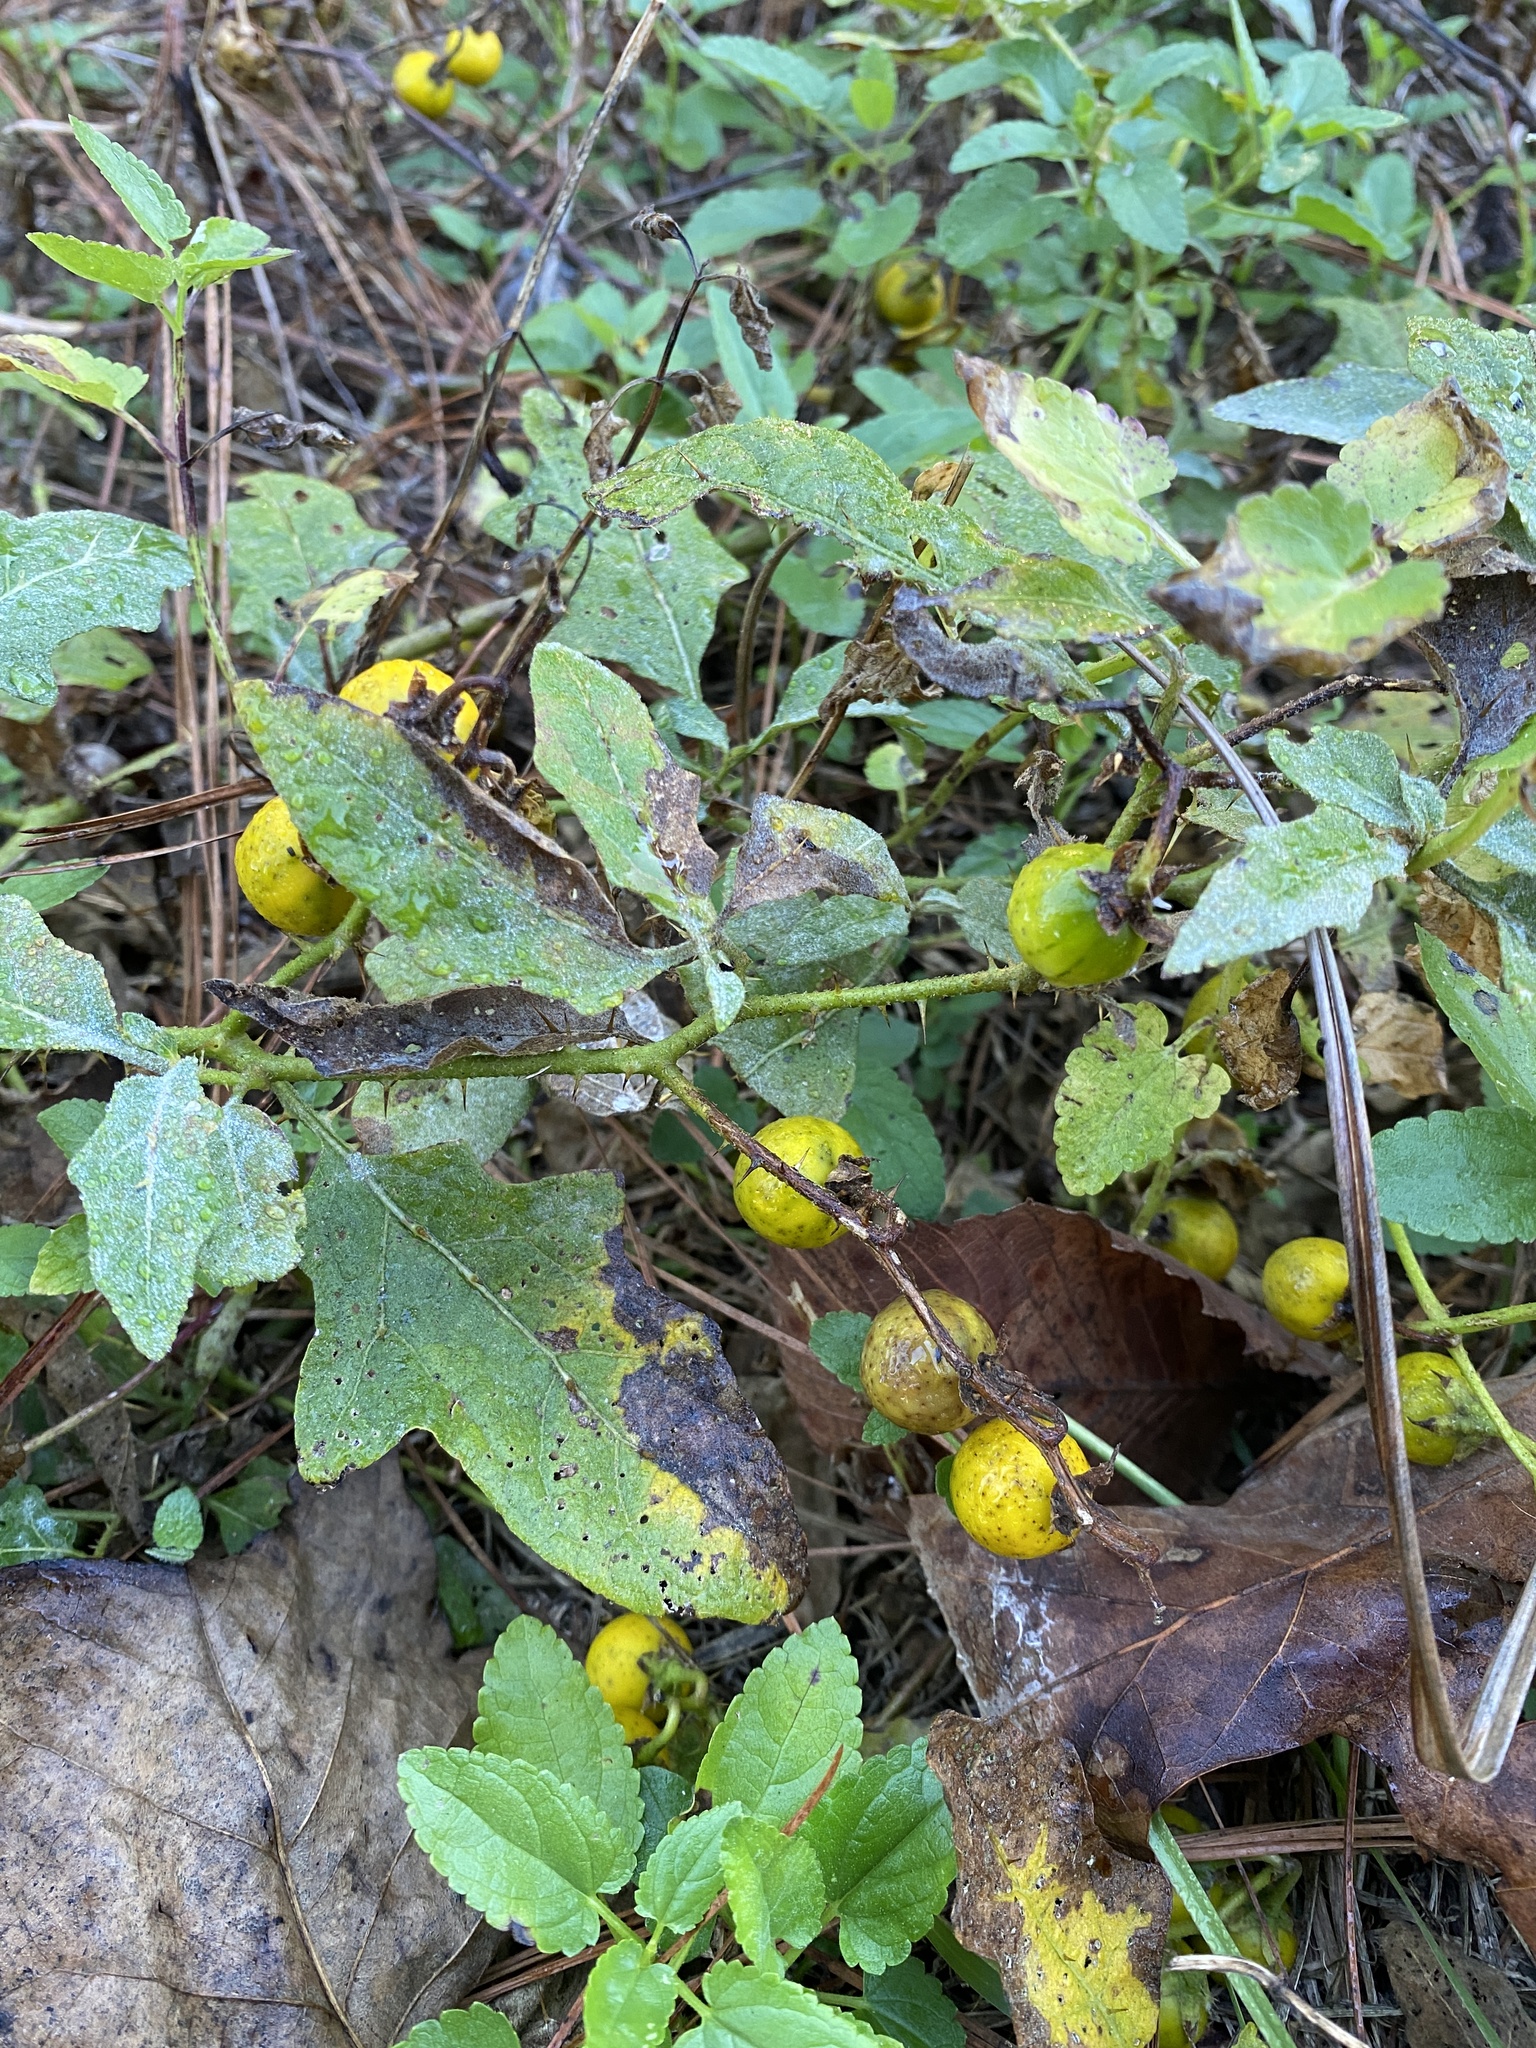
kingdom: Plantae
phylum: Tracheophyta
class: Magnoliopsida
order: Solanales
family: Solanaceae
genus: Solanum
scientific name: Solanum carolinense
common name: Horse-nettle
